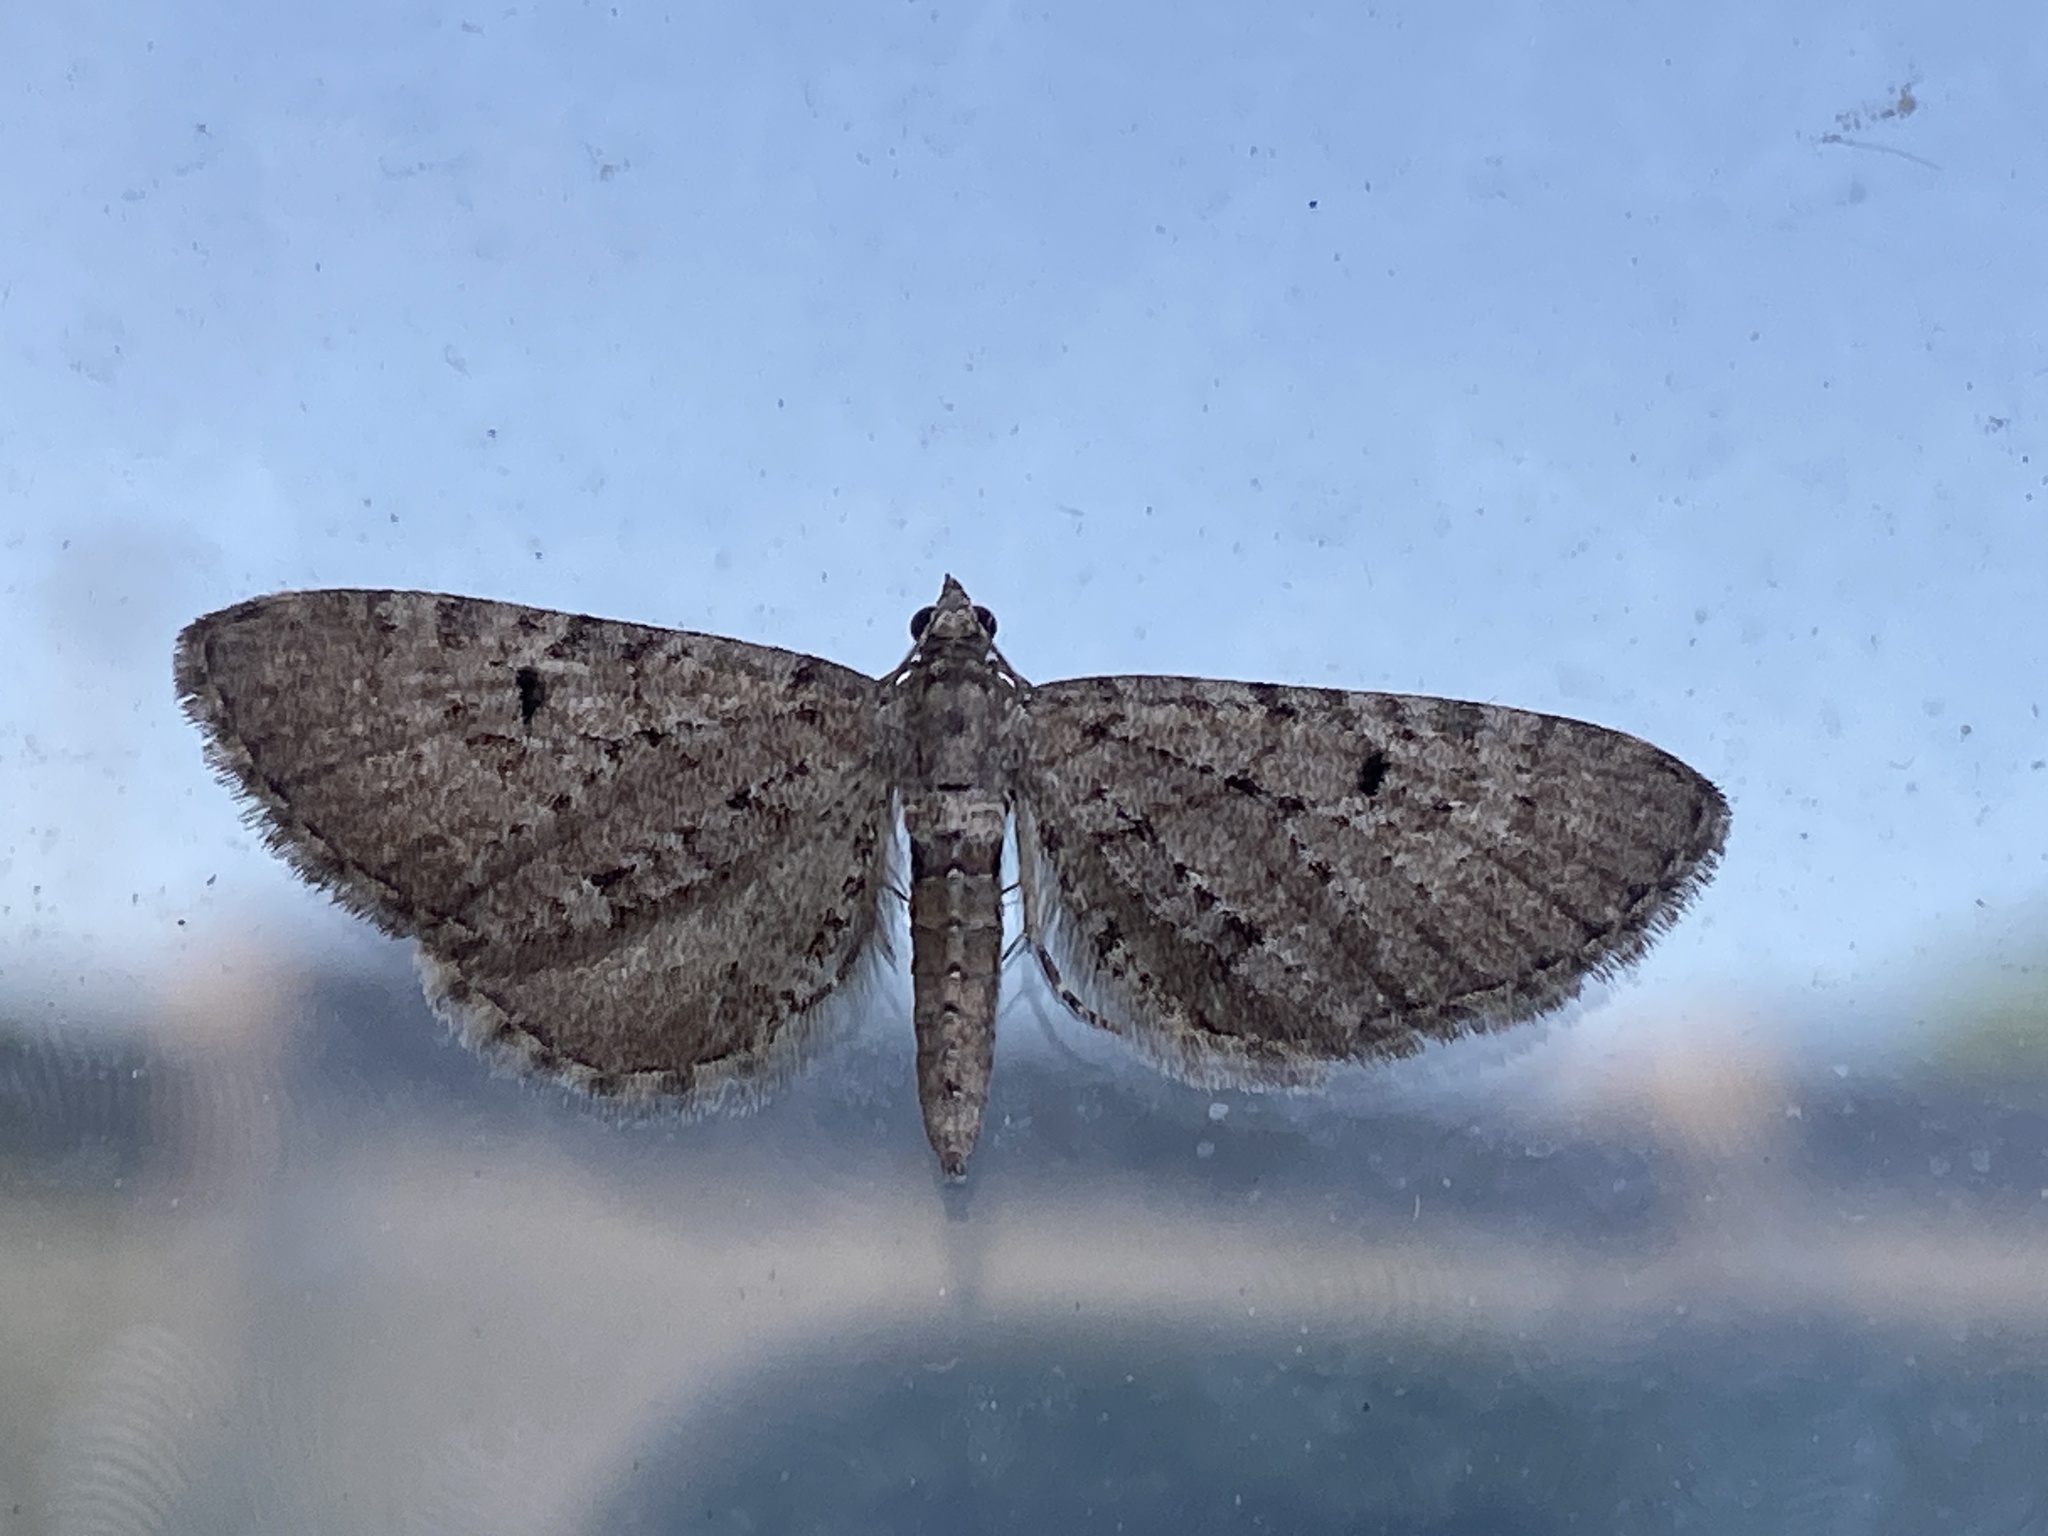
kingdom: Animalia
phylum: Arthropoda
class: Insecta
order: Lepidoptera
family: Geometridae
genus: Eupithecia
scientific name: Eupithecia intricata
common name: Freyers pug
